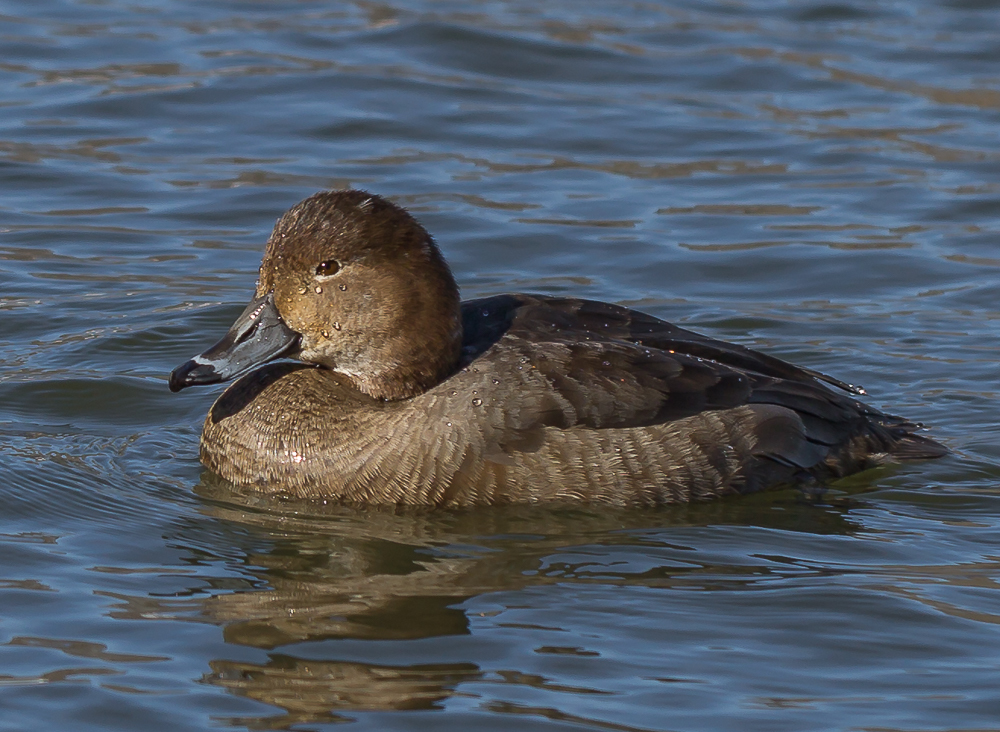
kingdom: Animalia
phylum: Chordata
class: Aves
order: Anseriformes
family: Anatidae
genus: Aythya
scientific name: Aythya americana
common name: Redhead
